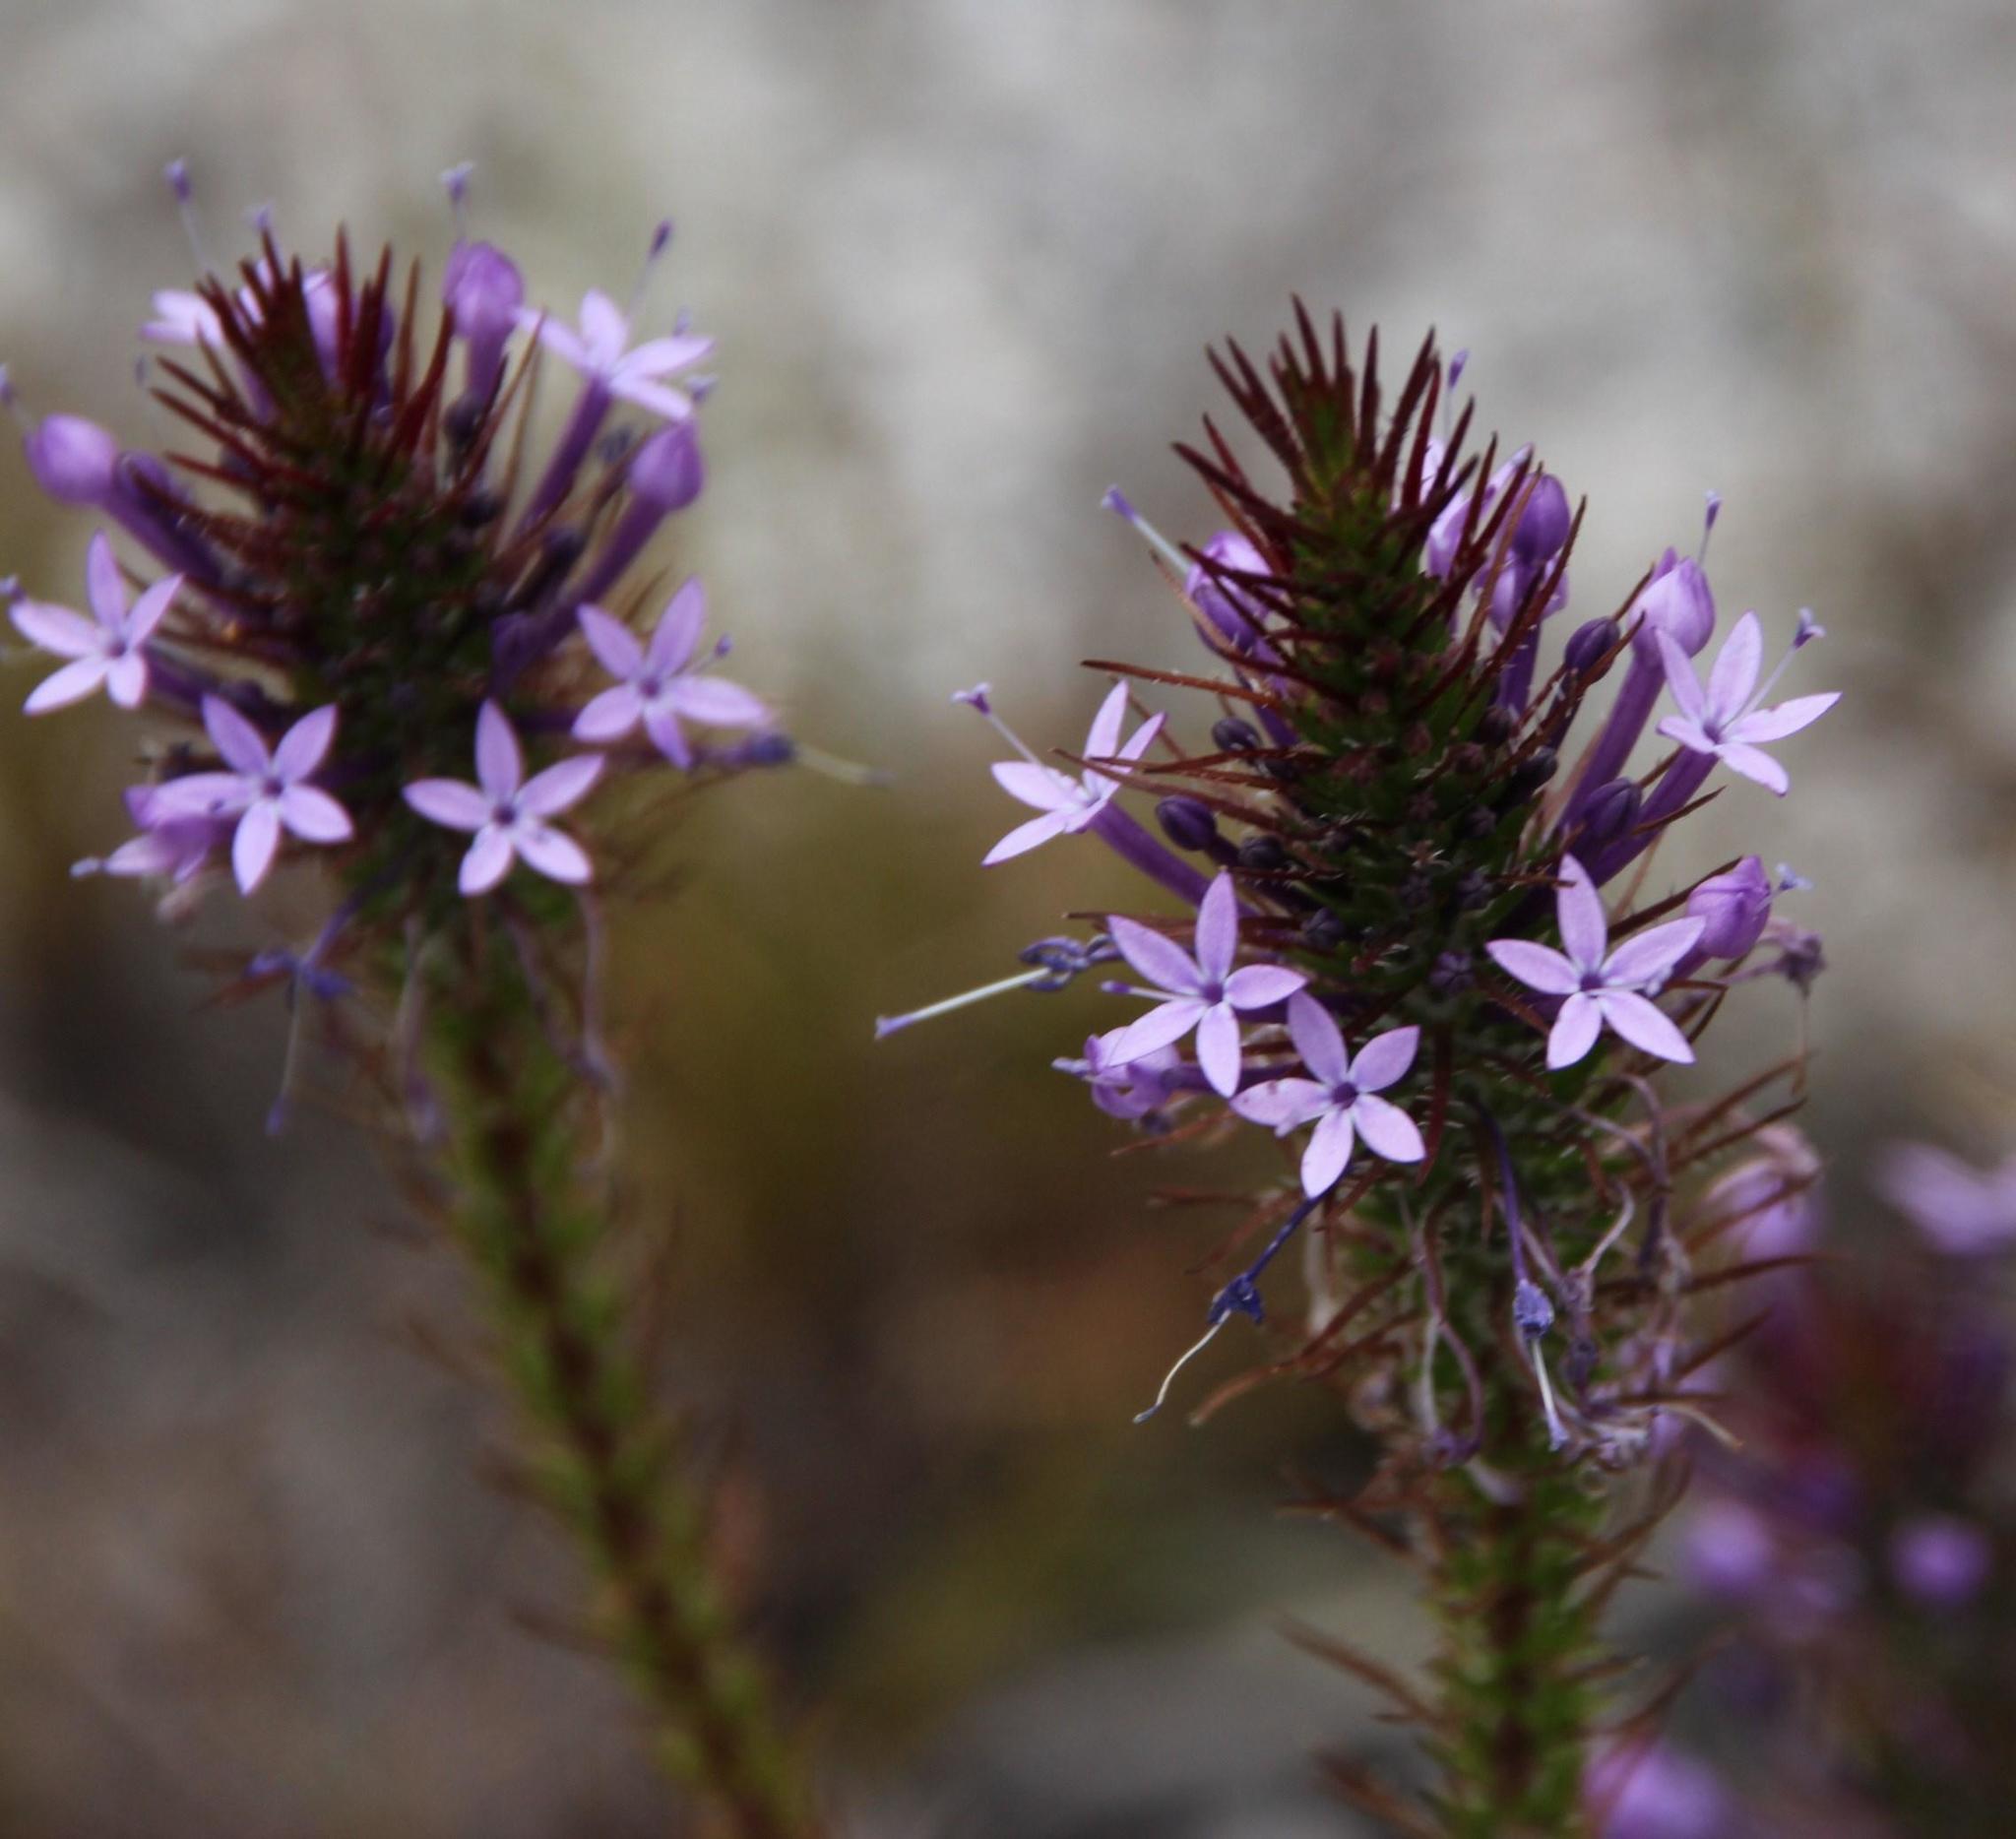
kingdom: Plantae
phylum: Tracheophyta
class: Magnoliopsida
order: Asterales
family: Campanulaceae
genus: Merciera
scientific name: Merciera eckloniana
